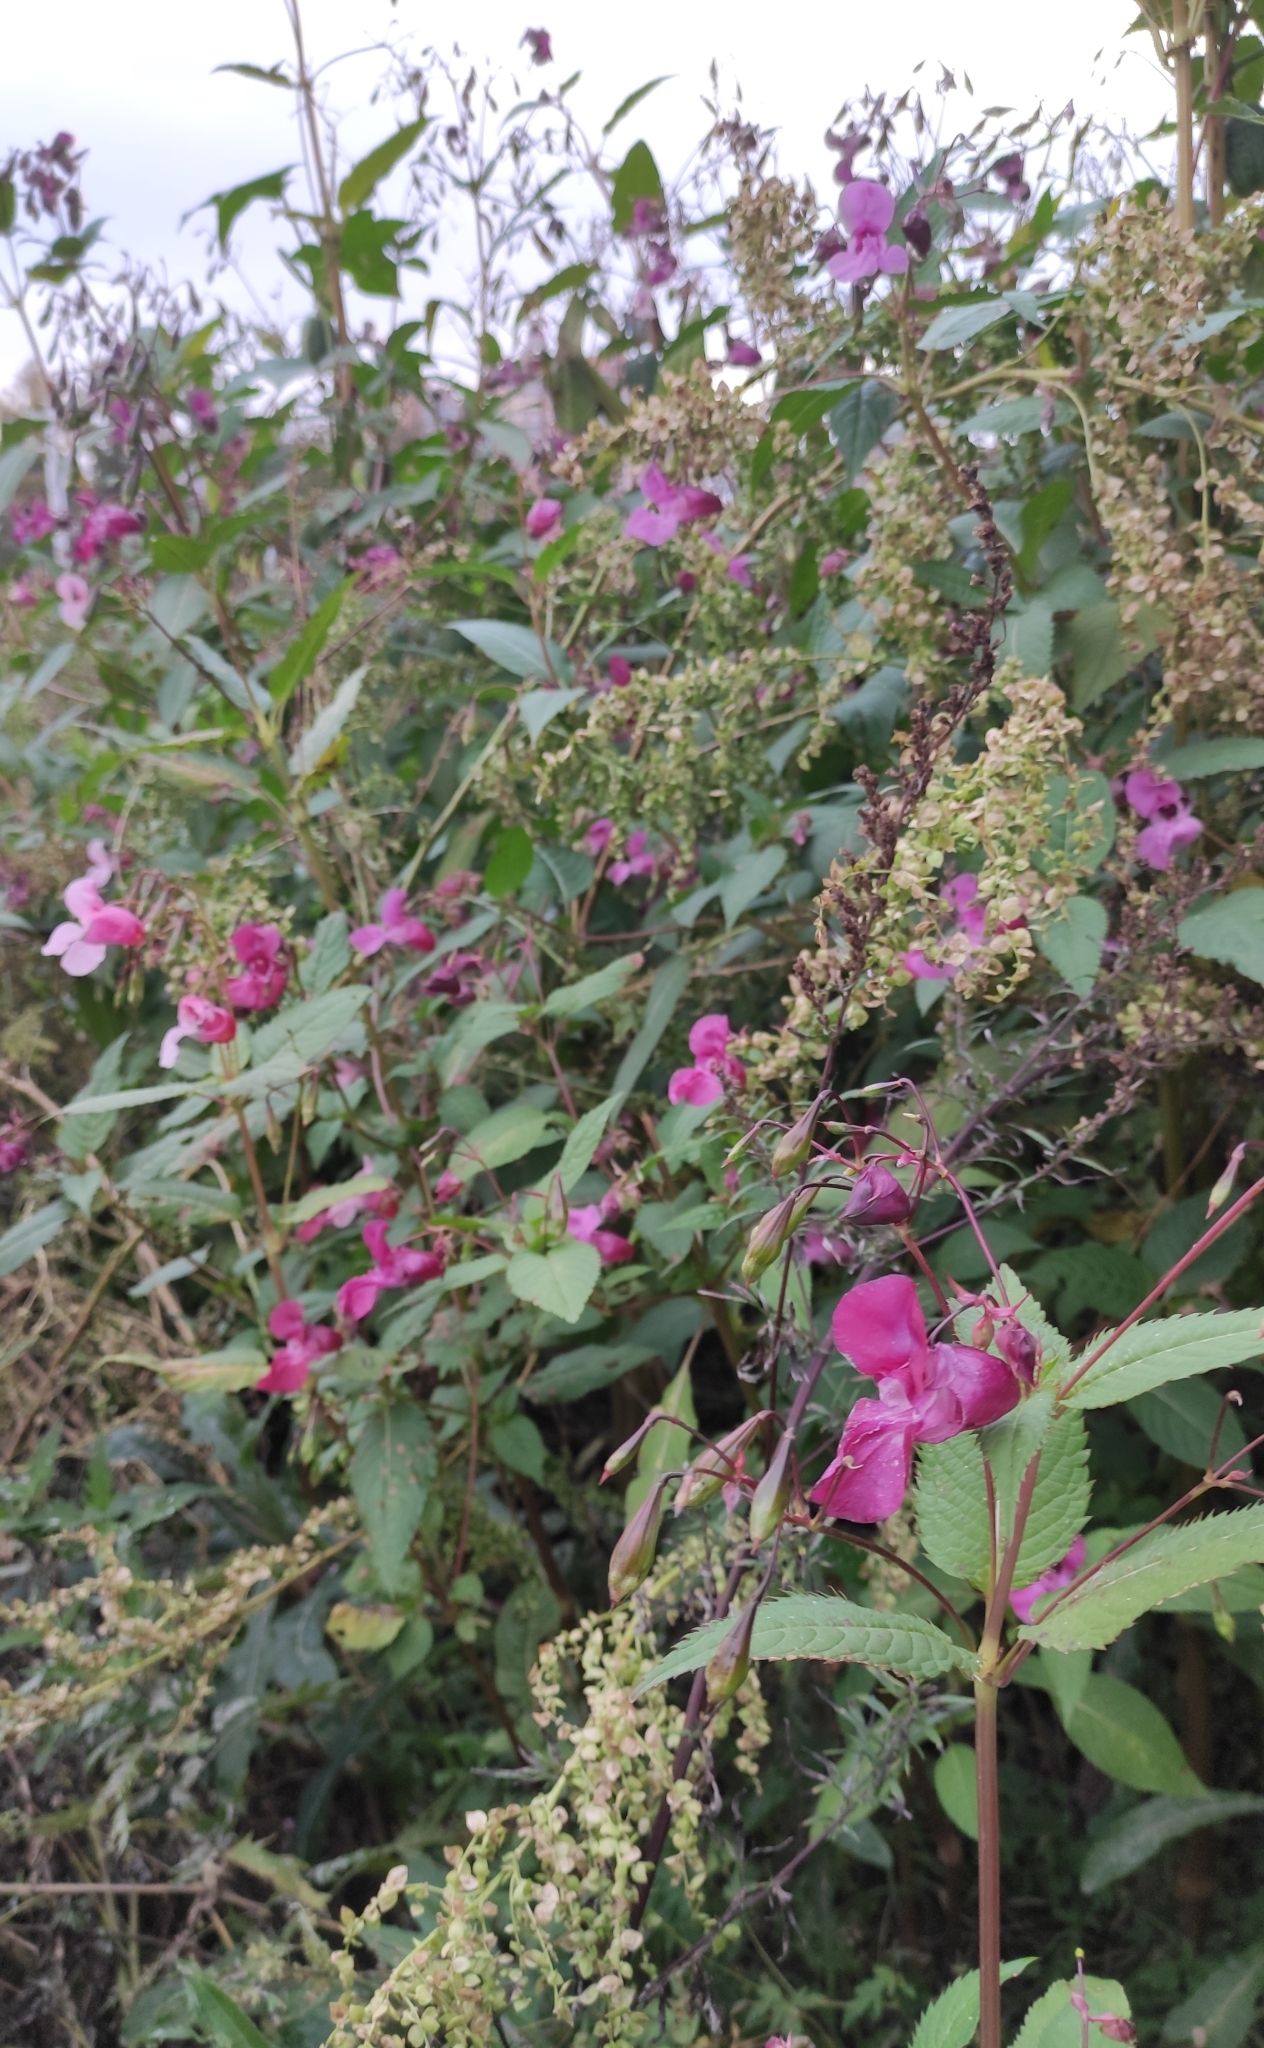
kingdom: Plantae
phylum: Tracheophyta
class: Magnoliopsida
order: Ericales
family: Balsaminaceae
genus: Impatiens
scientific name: Impatiens glandulifera
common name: Himalayan balsam
